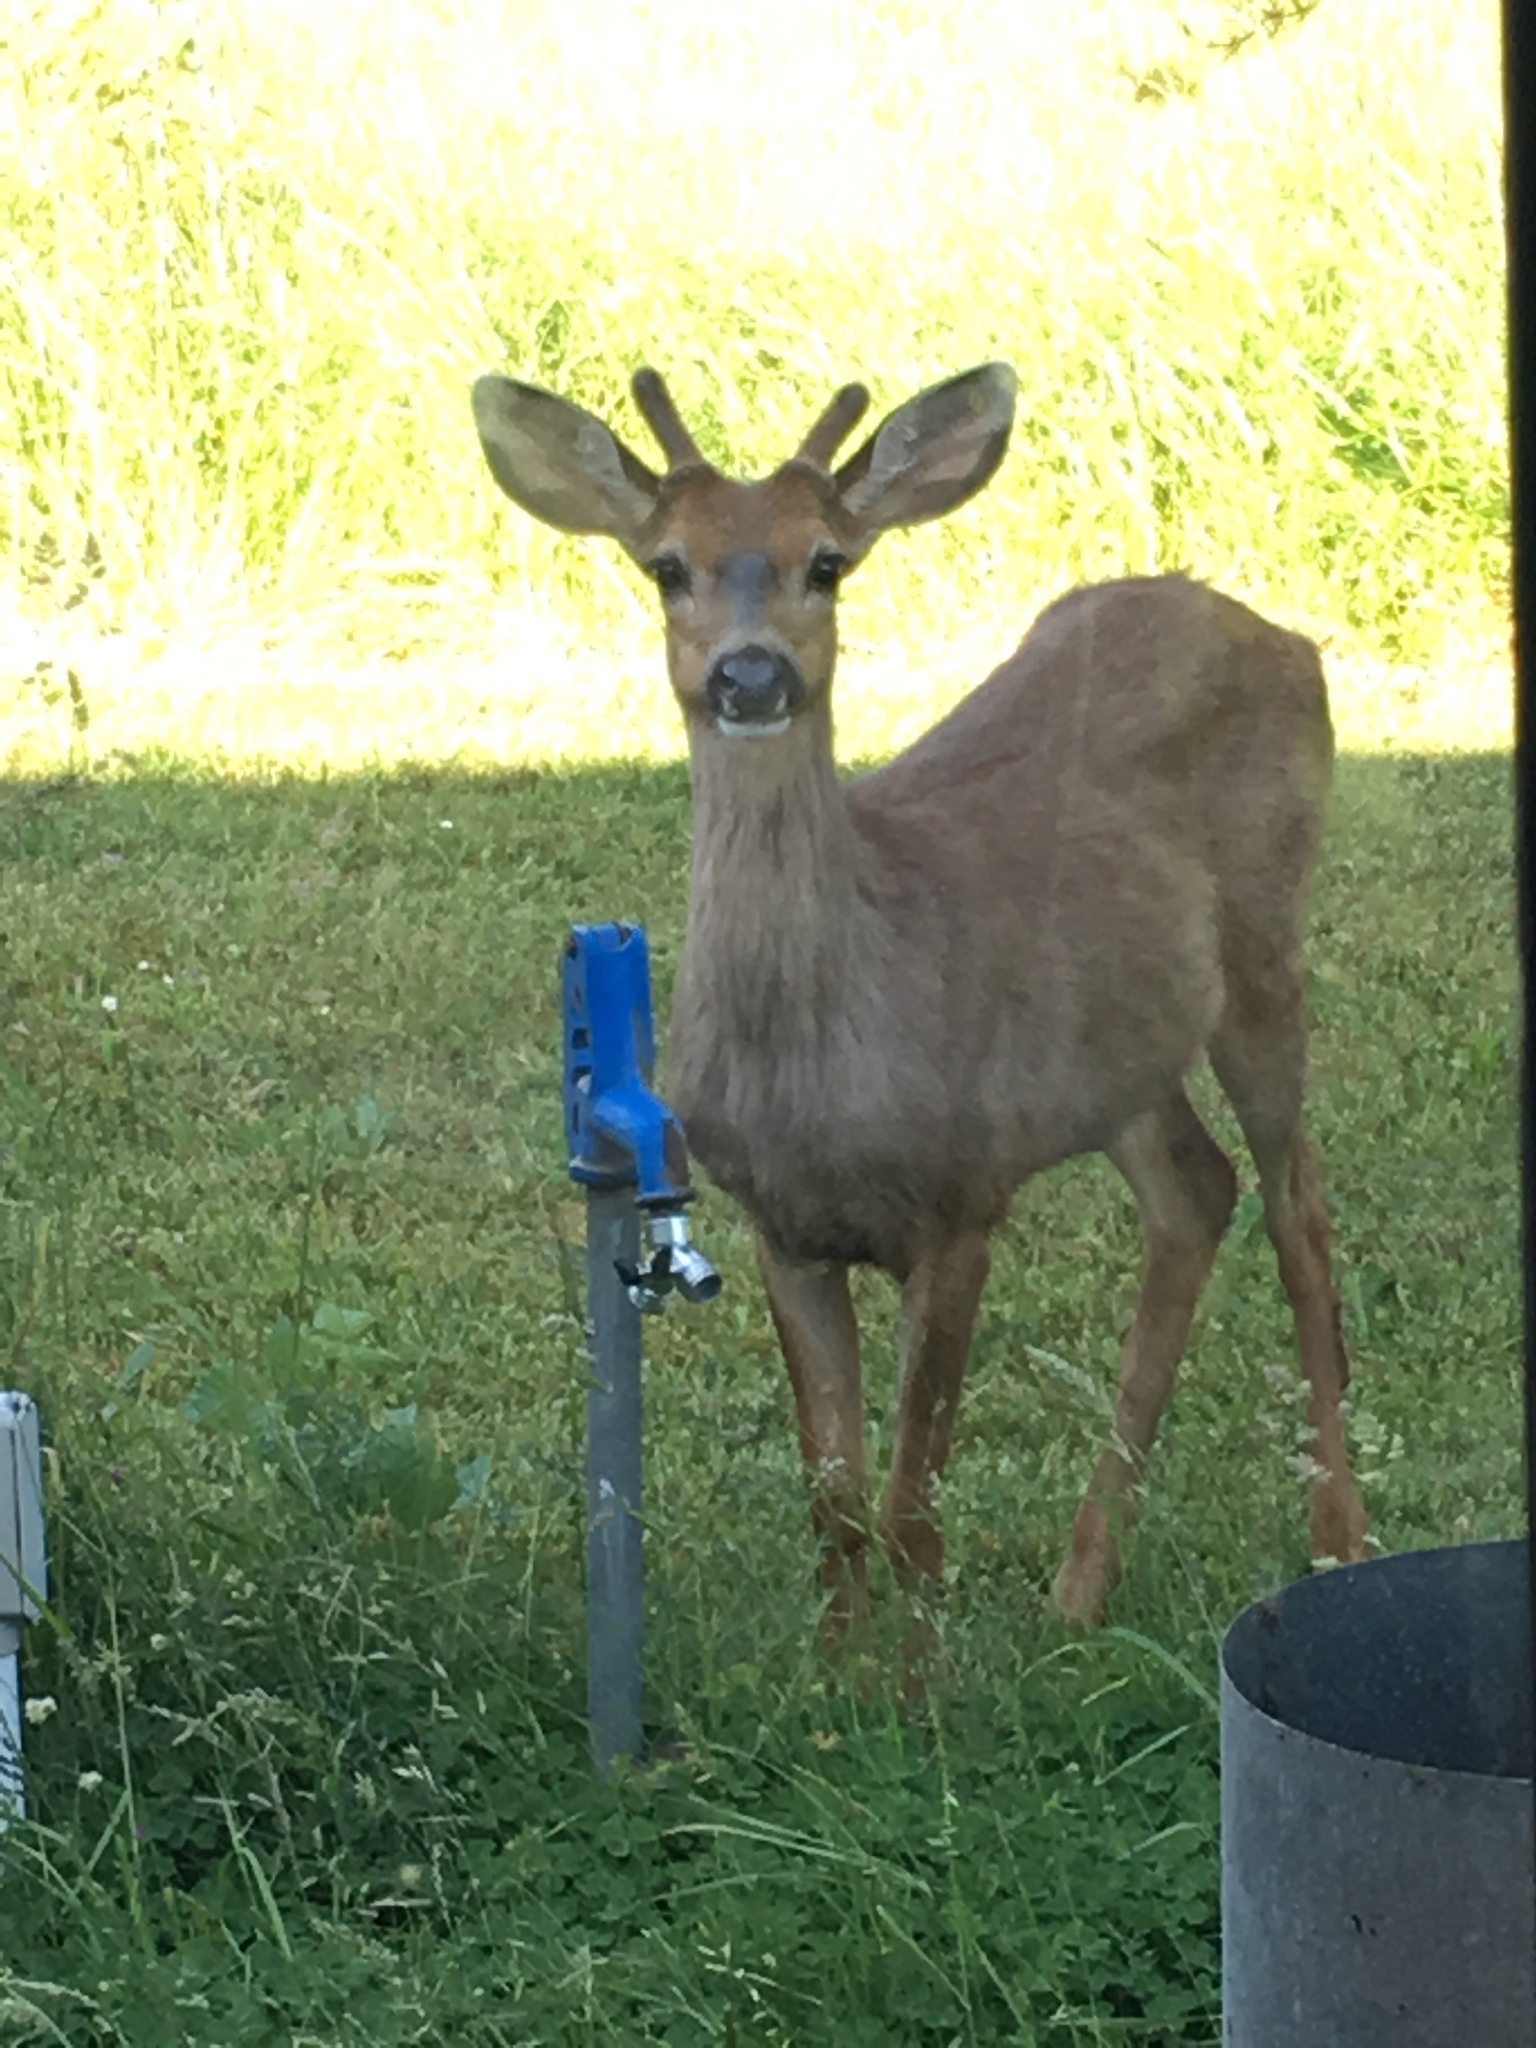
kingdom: Animalia
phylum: Chordata
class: Mammalia
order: Artiodactyla
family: Cervidae
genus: Odocoileus
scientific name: Odocoileus hemionus
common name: Mule deer
